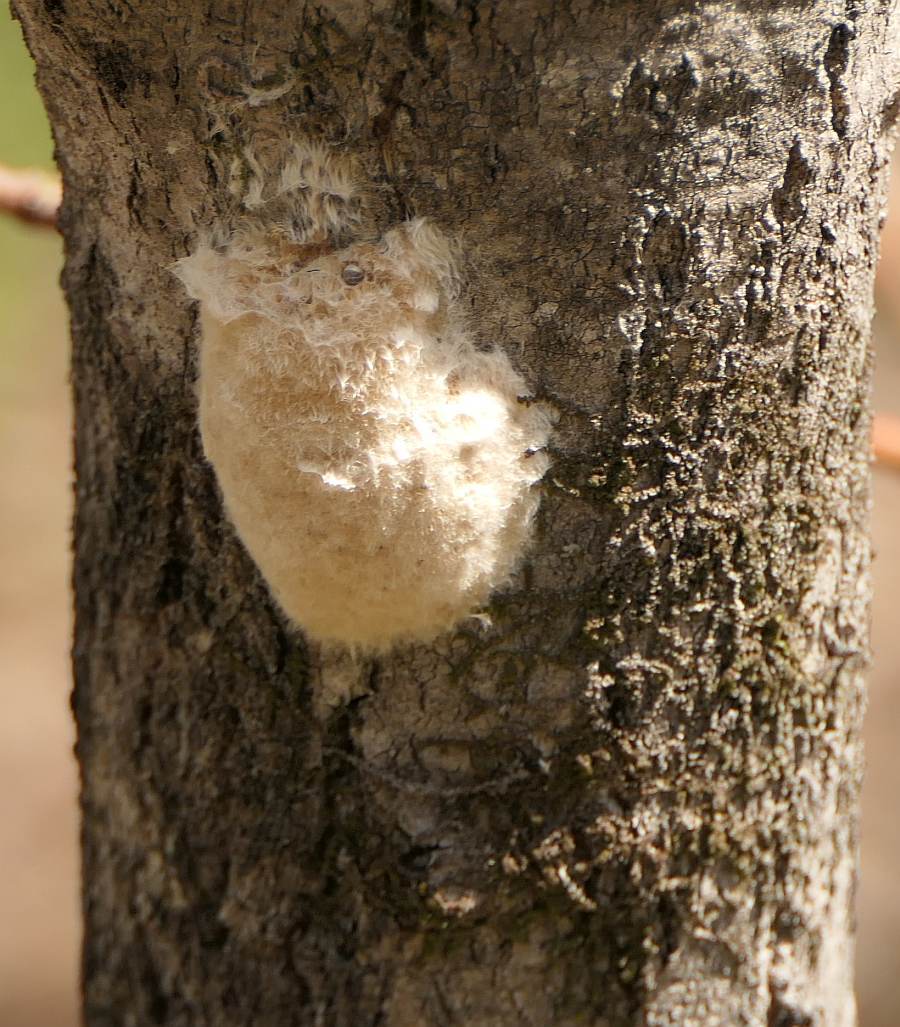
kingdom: Animalia
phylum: Arthropoda
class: Insecta
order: Lepidoptera
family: Erebidae
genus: Lymantria
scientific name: Lymantria dispar
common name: Gypsy moth
